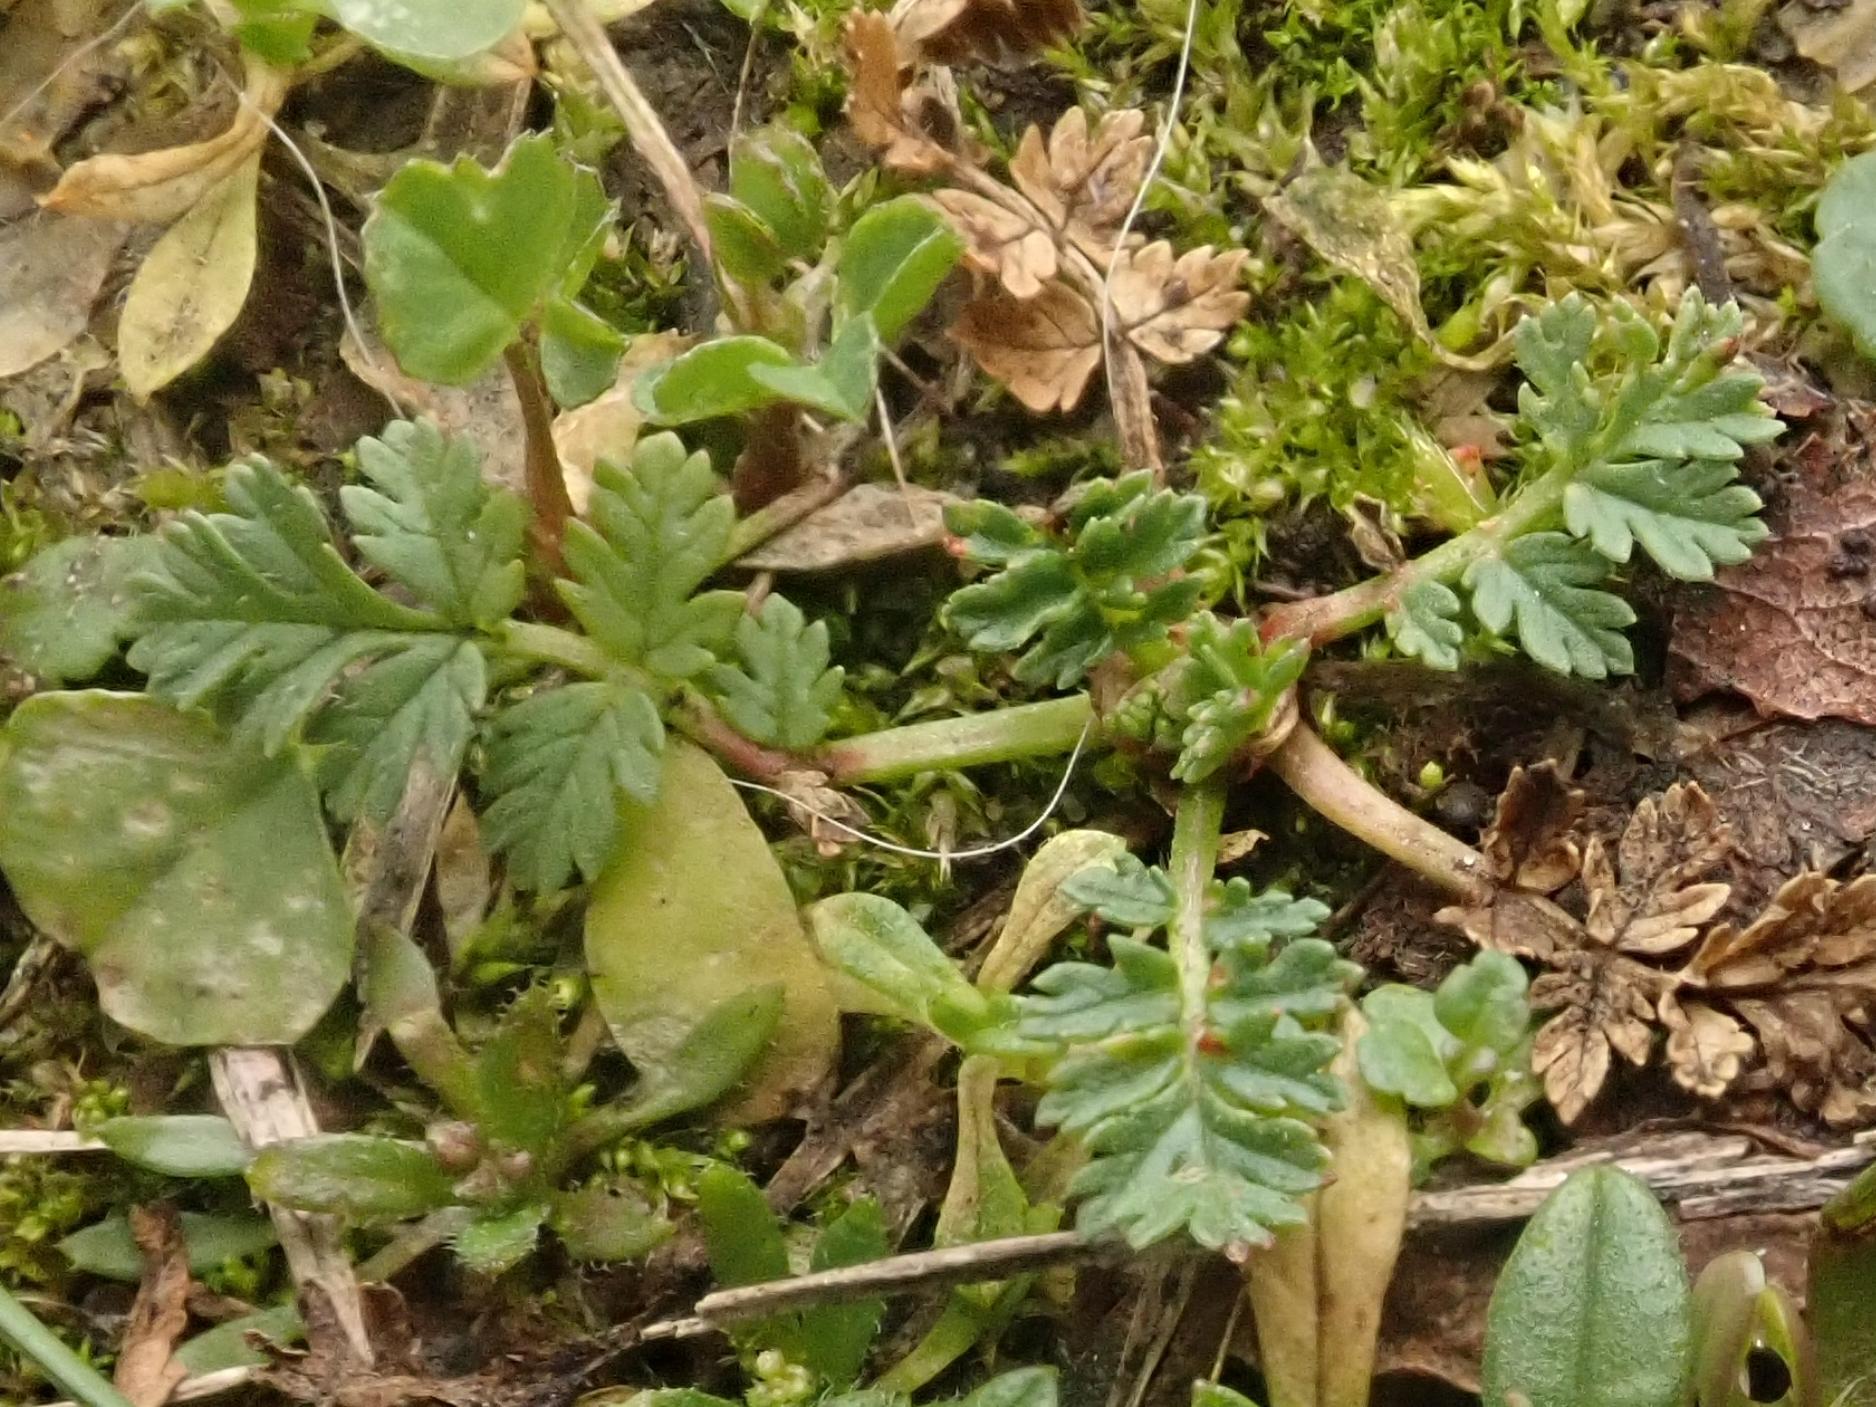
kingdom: Plantae
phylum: Tracheophyta
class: Magnoliopsida
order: Geraniales
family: Geraniaceae
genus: Erodium
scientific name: Erodium cicutarium
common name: Common stork's-bill
